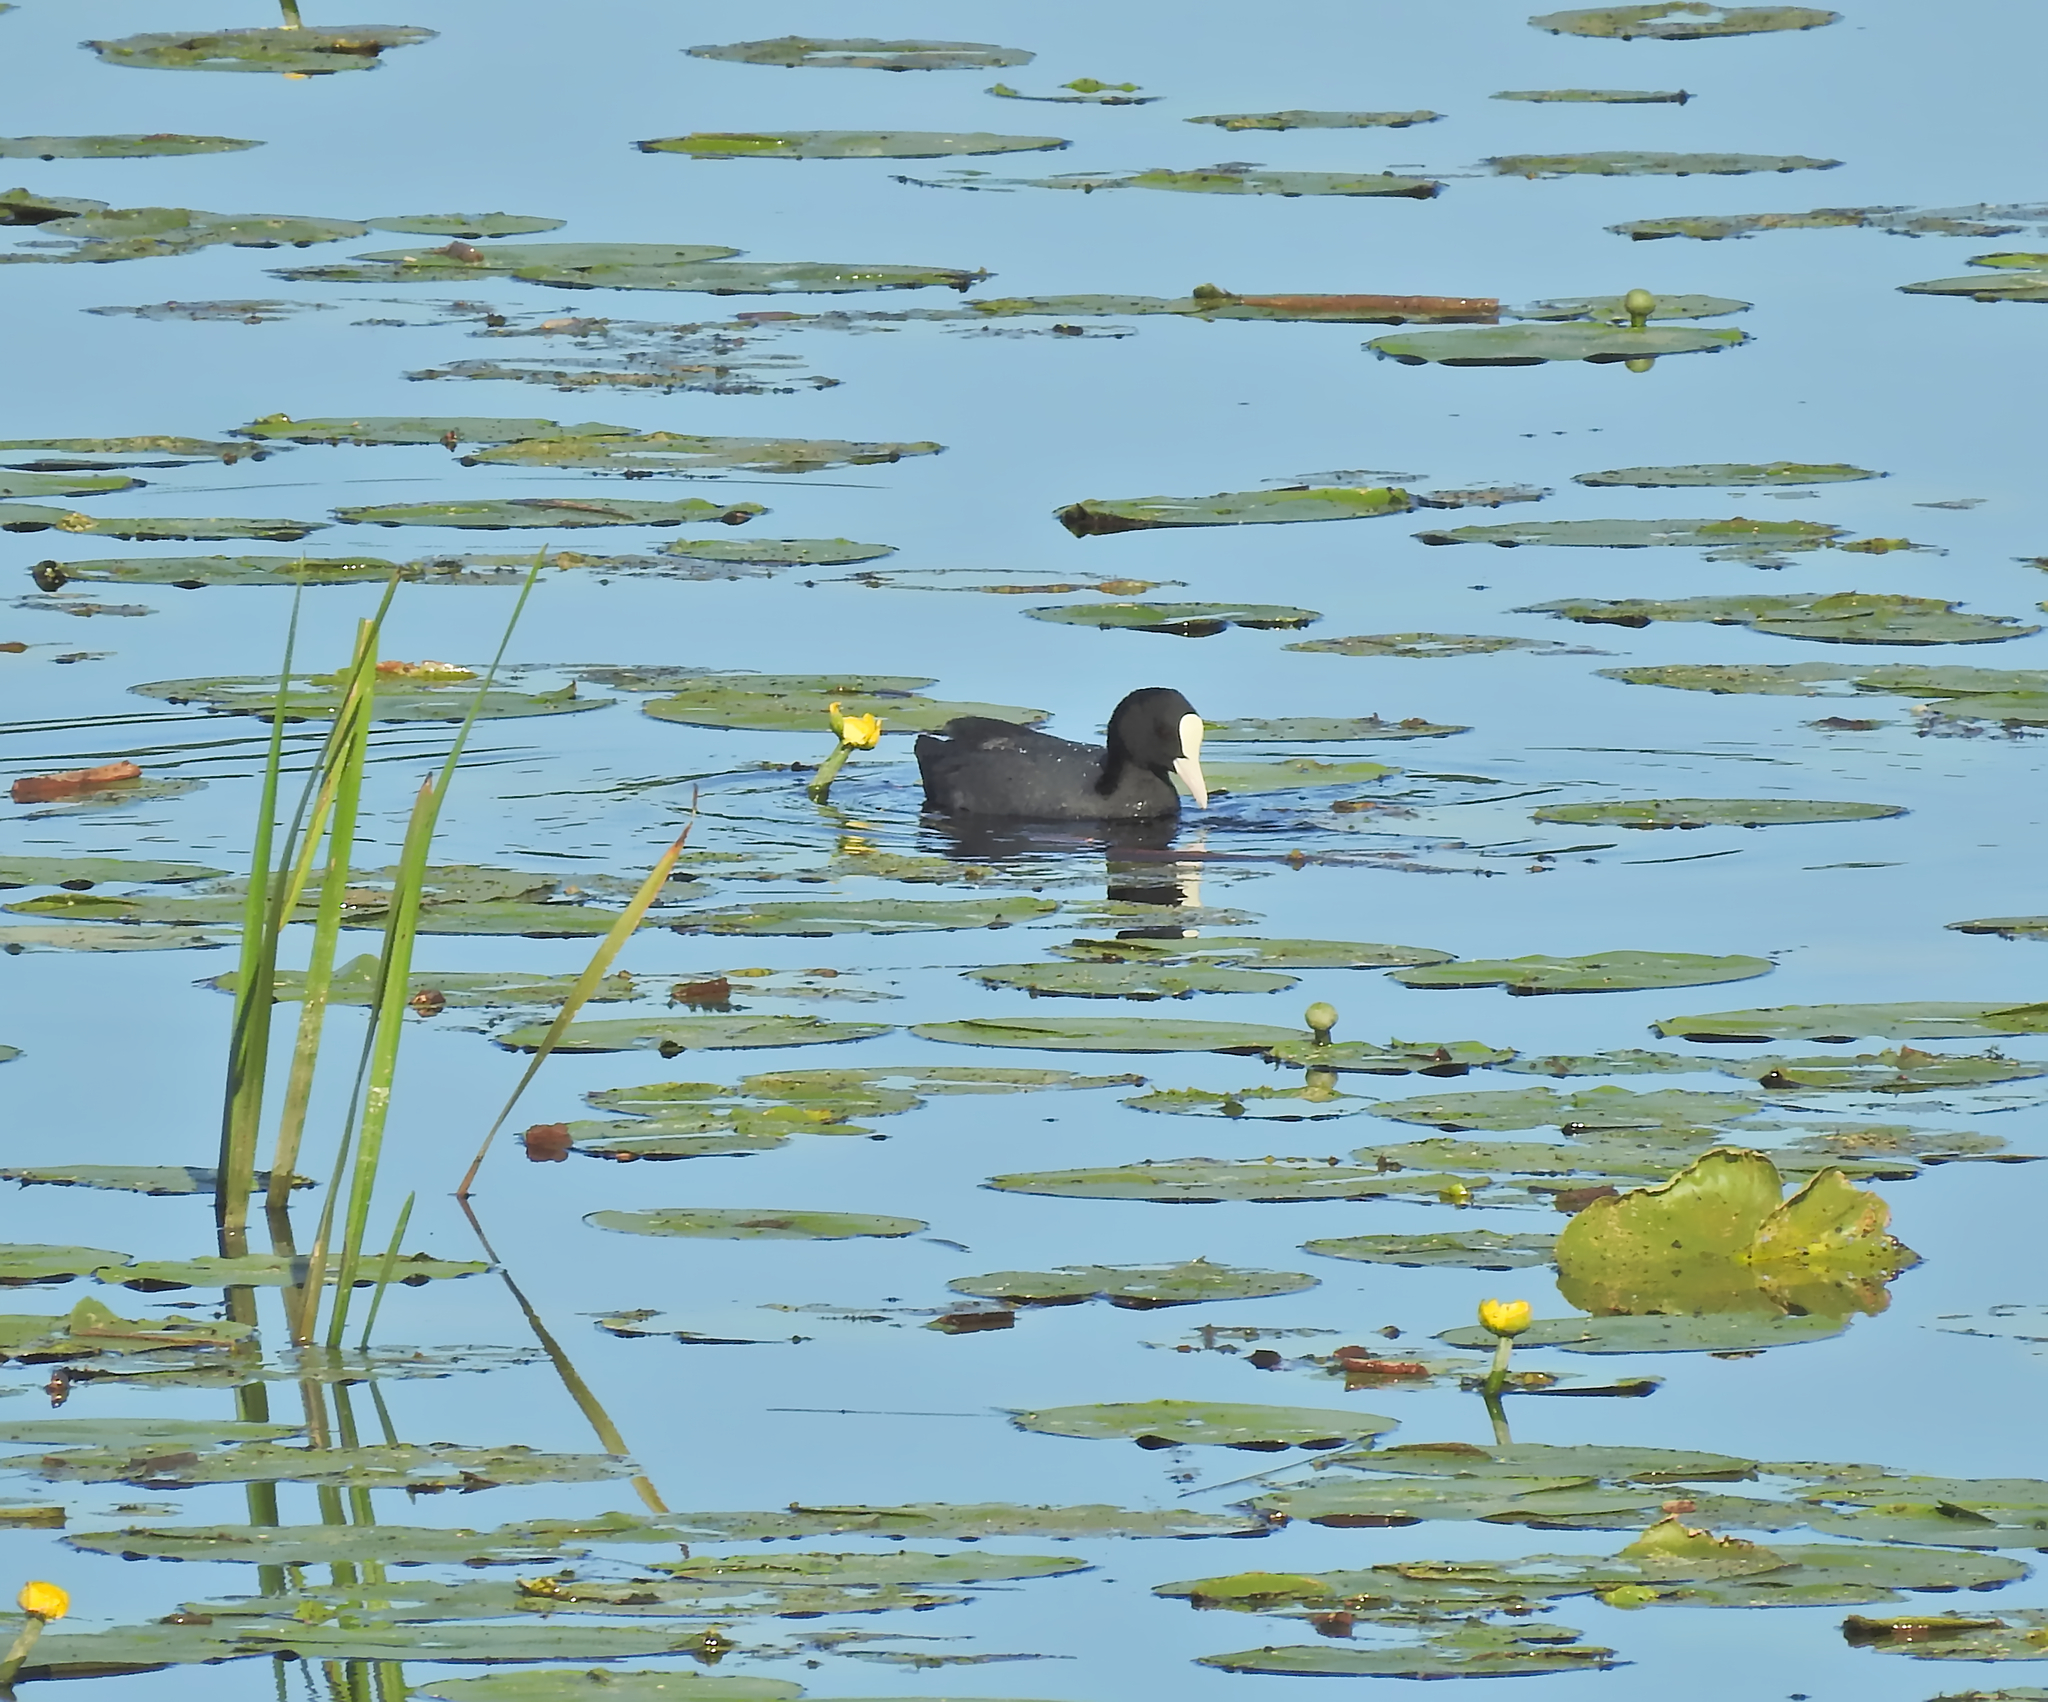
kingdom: Animalia
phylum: Chordata
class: Aves
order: Gruiformes
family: Rallidae
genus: Fulica
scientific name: Fulica atra
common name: Eurasian coot
